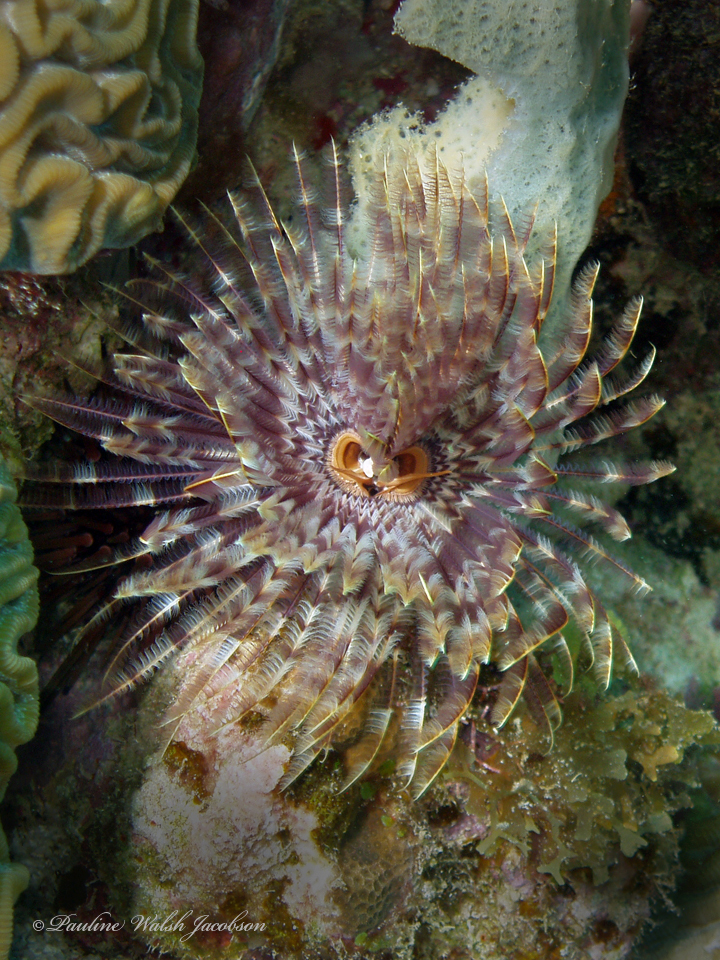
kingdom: Animalia
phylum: Annelida
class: Polychaeta
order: Sabellida
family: Sabellidae
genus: Sabellastarte
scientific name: Sabellastarte magnifica
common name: Giant feather-duster worm
